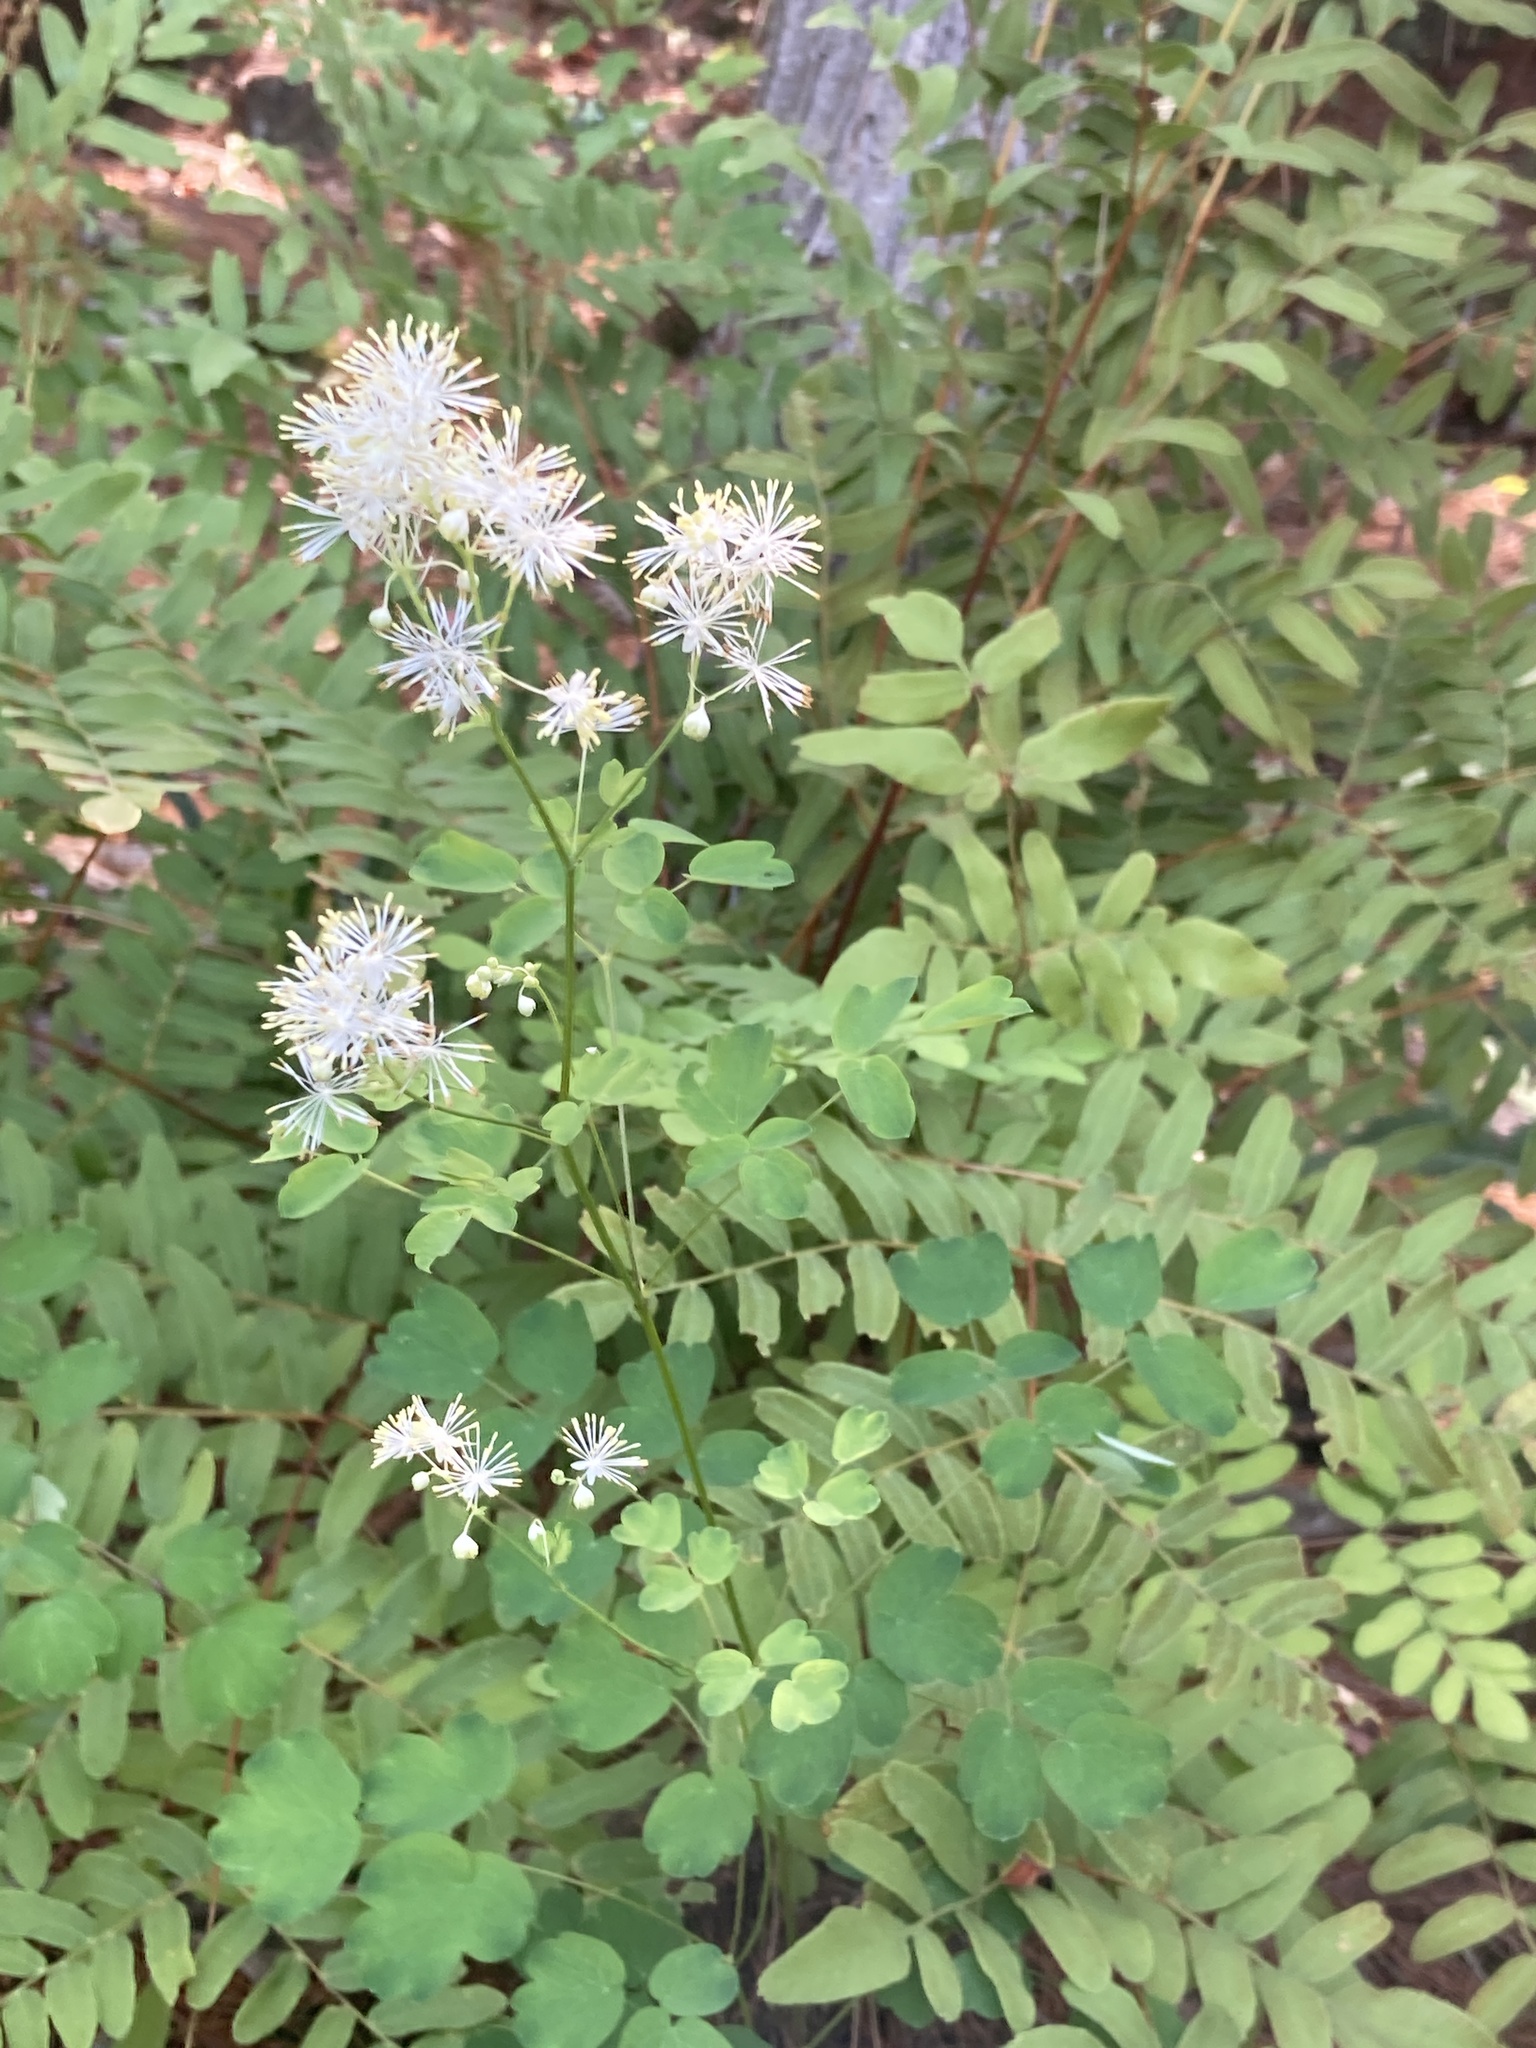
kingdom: Plantae
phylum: Tracheophyta
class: Magnoliopsida
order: Ranunculales
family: Ranunculaceae
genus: Thalictrum
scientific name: Thalictrum pubescens
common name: King-of-the-meadow
